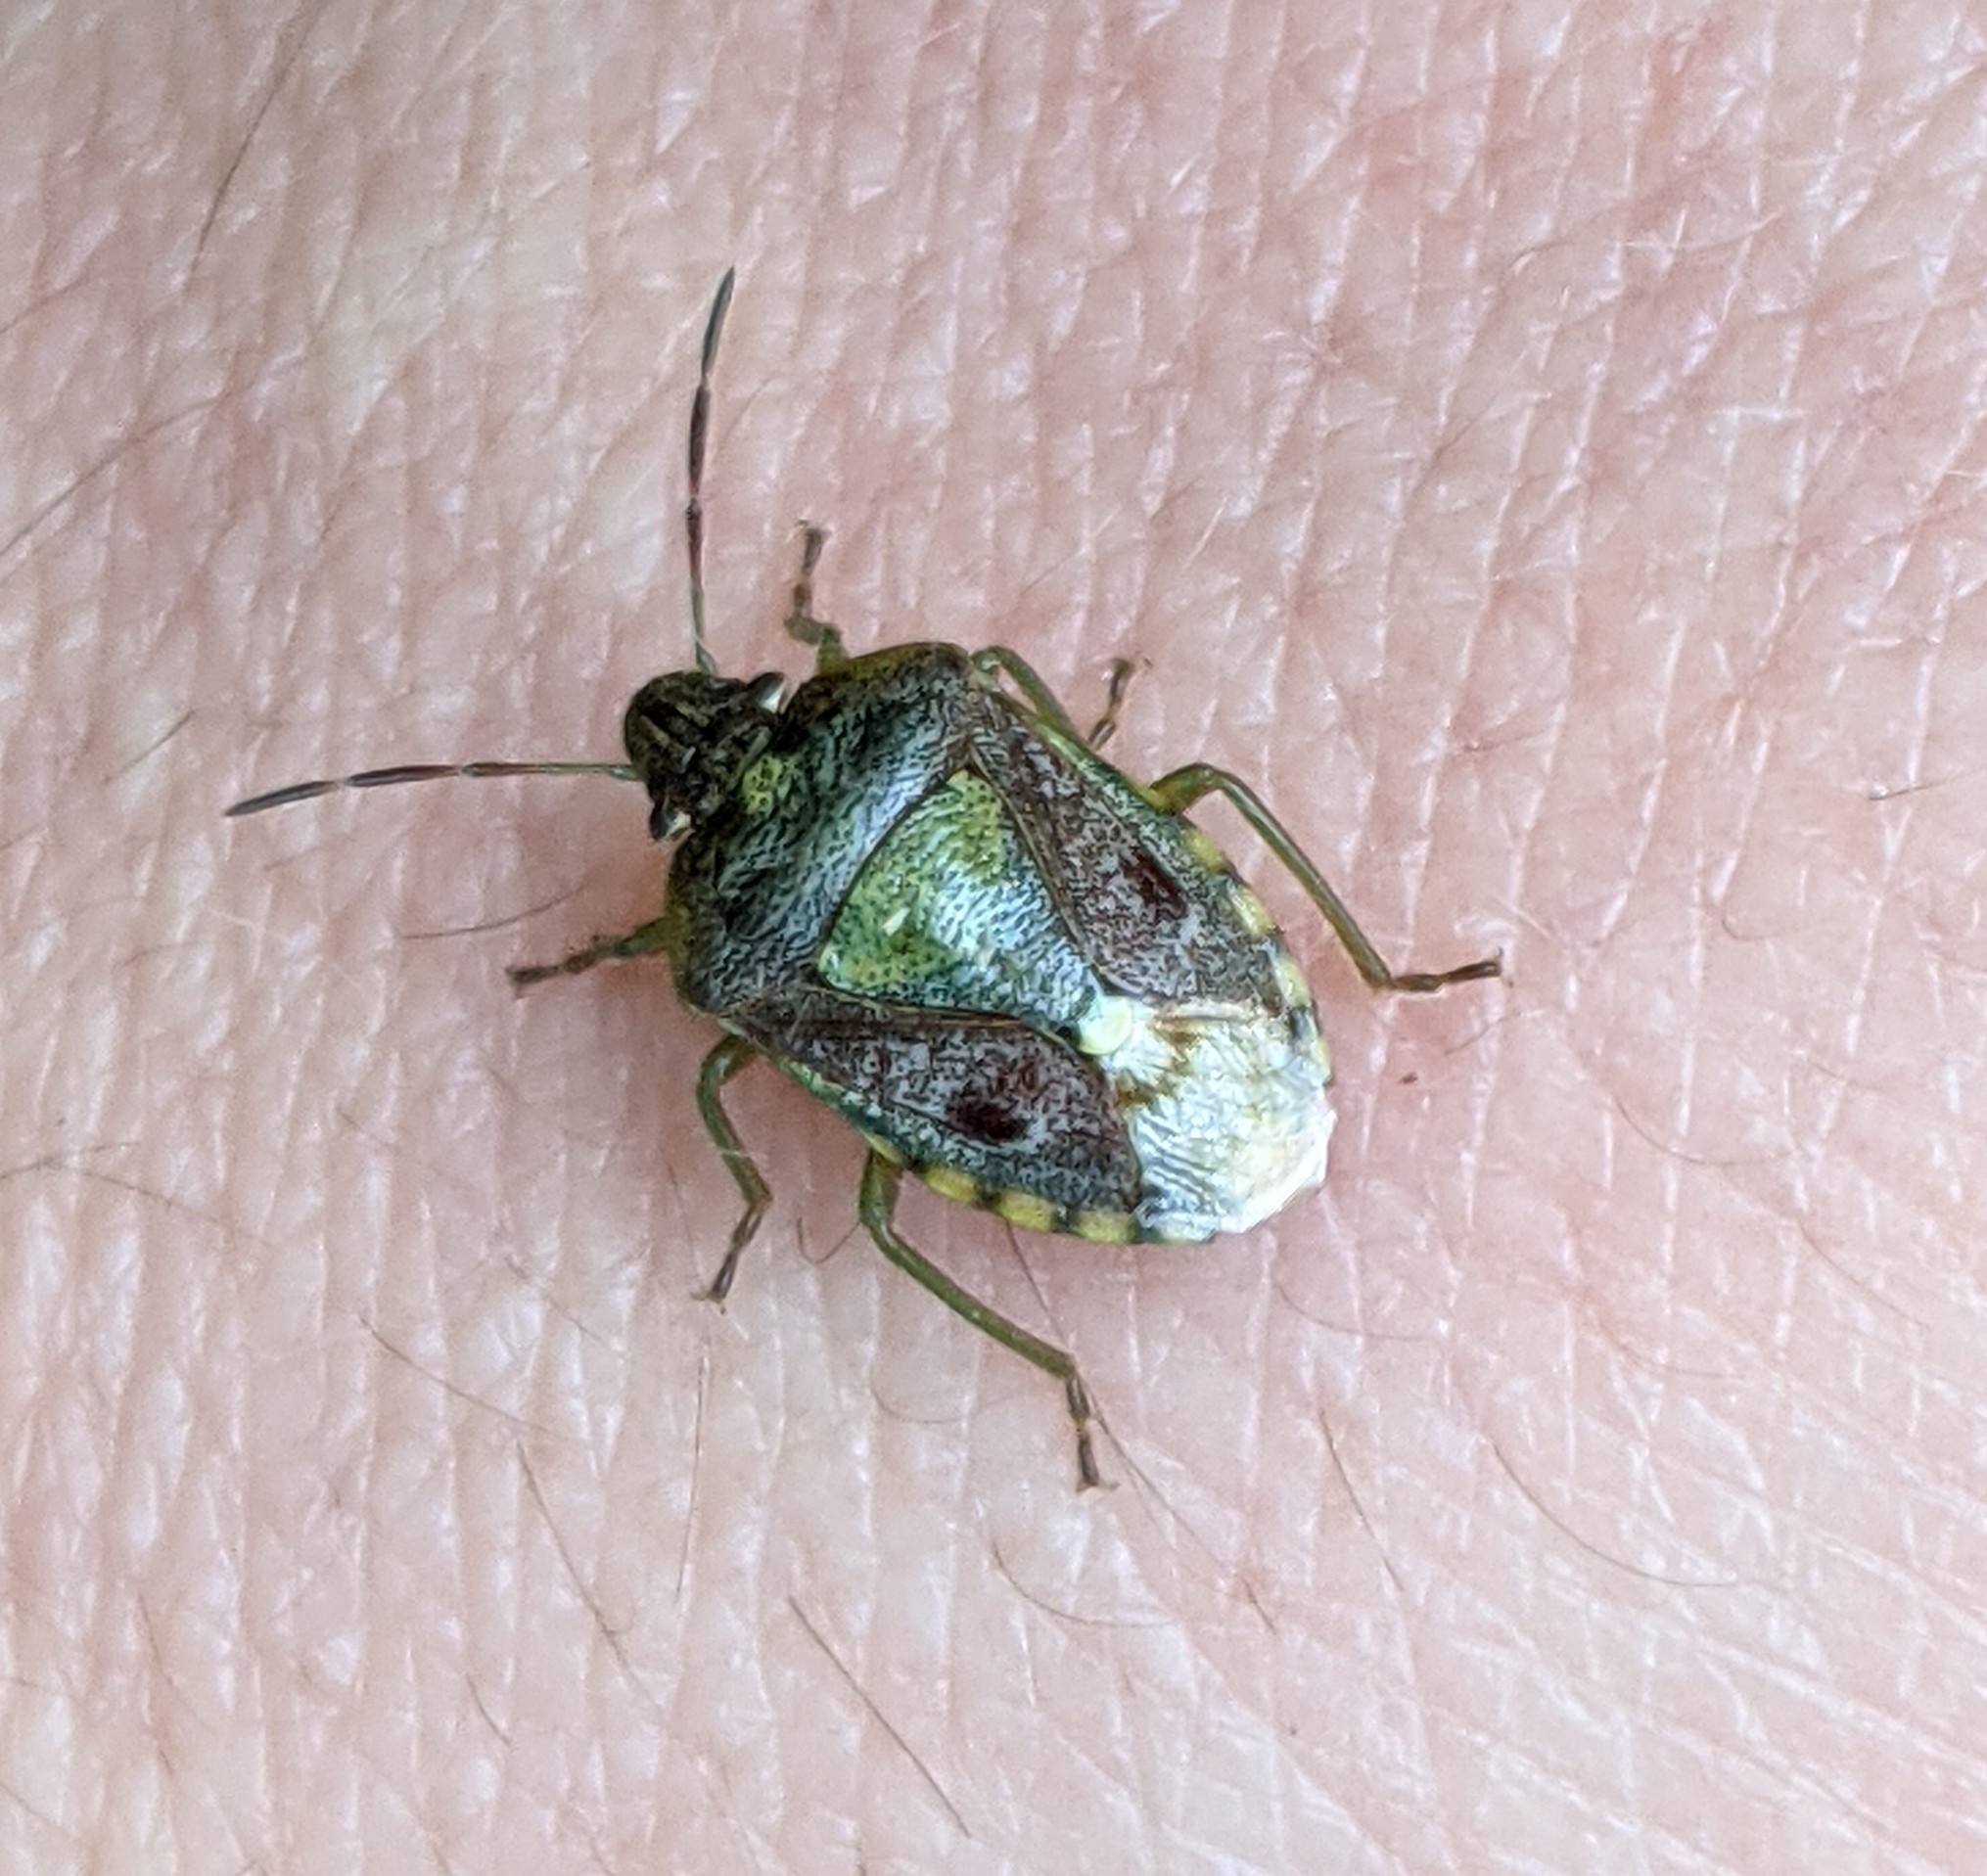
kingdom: Animalia
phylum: Arthropoda
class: Insecta
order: Hemiptera
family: Pentatomidae
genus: Banasa
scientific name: Banasa sordida
